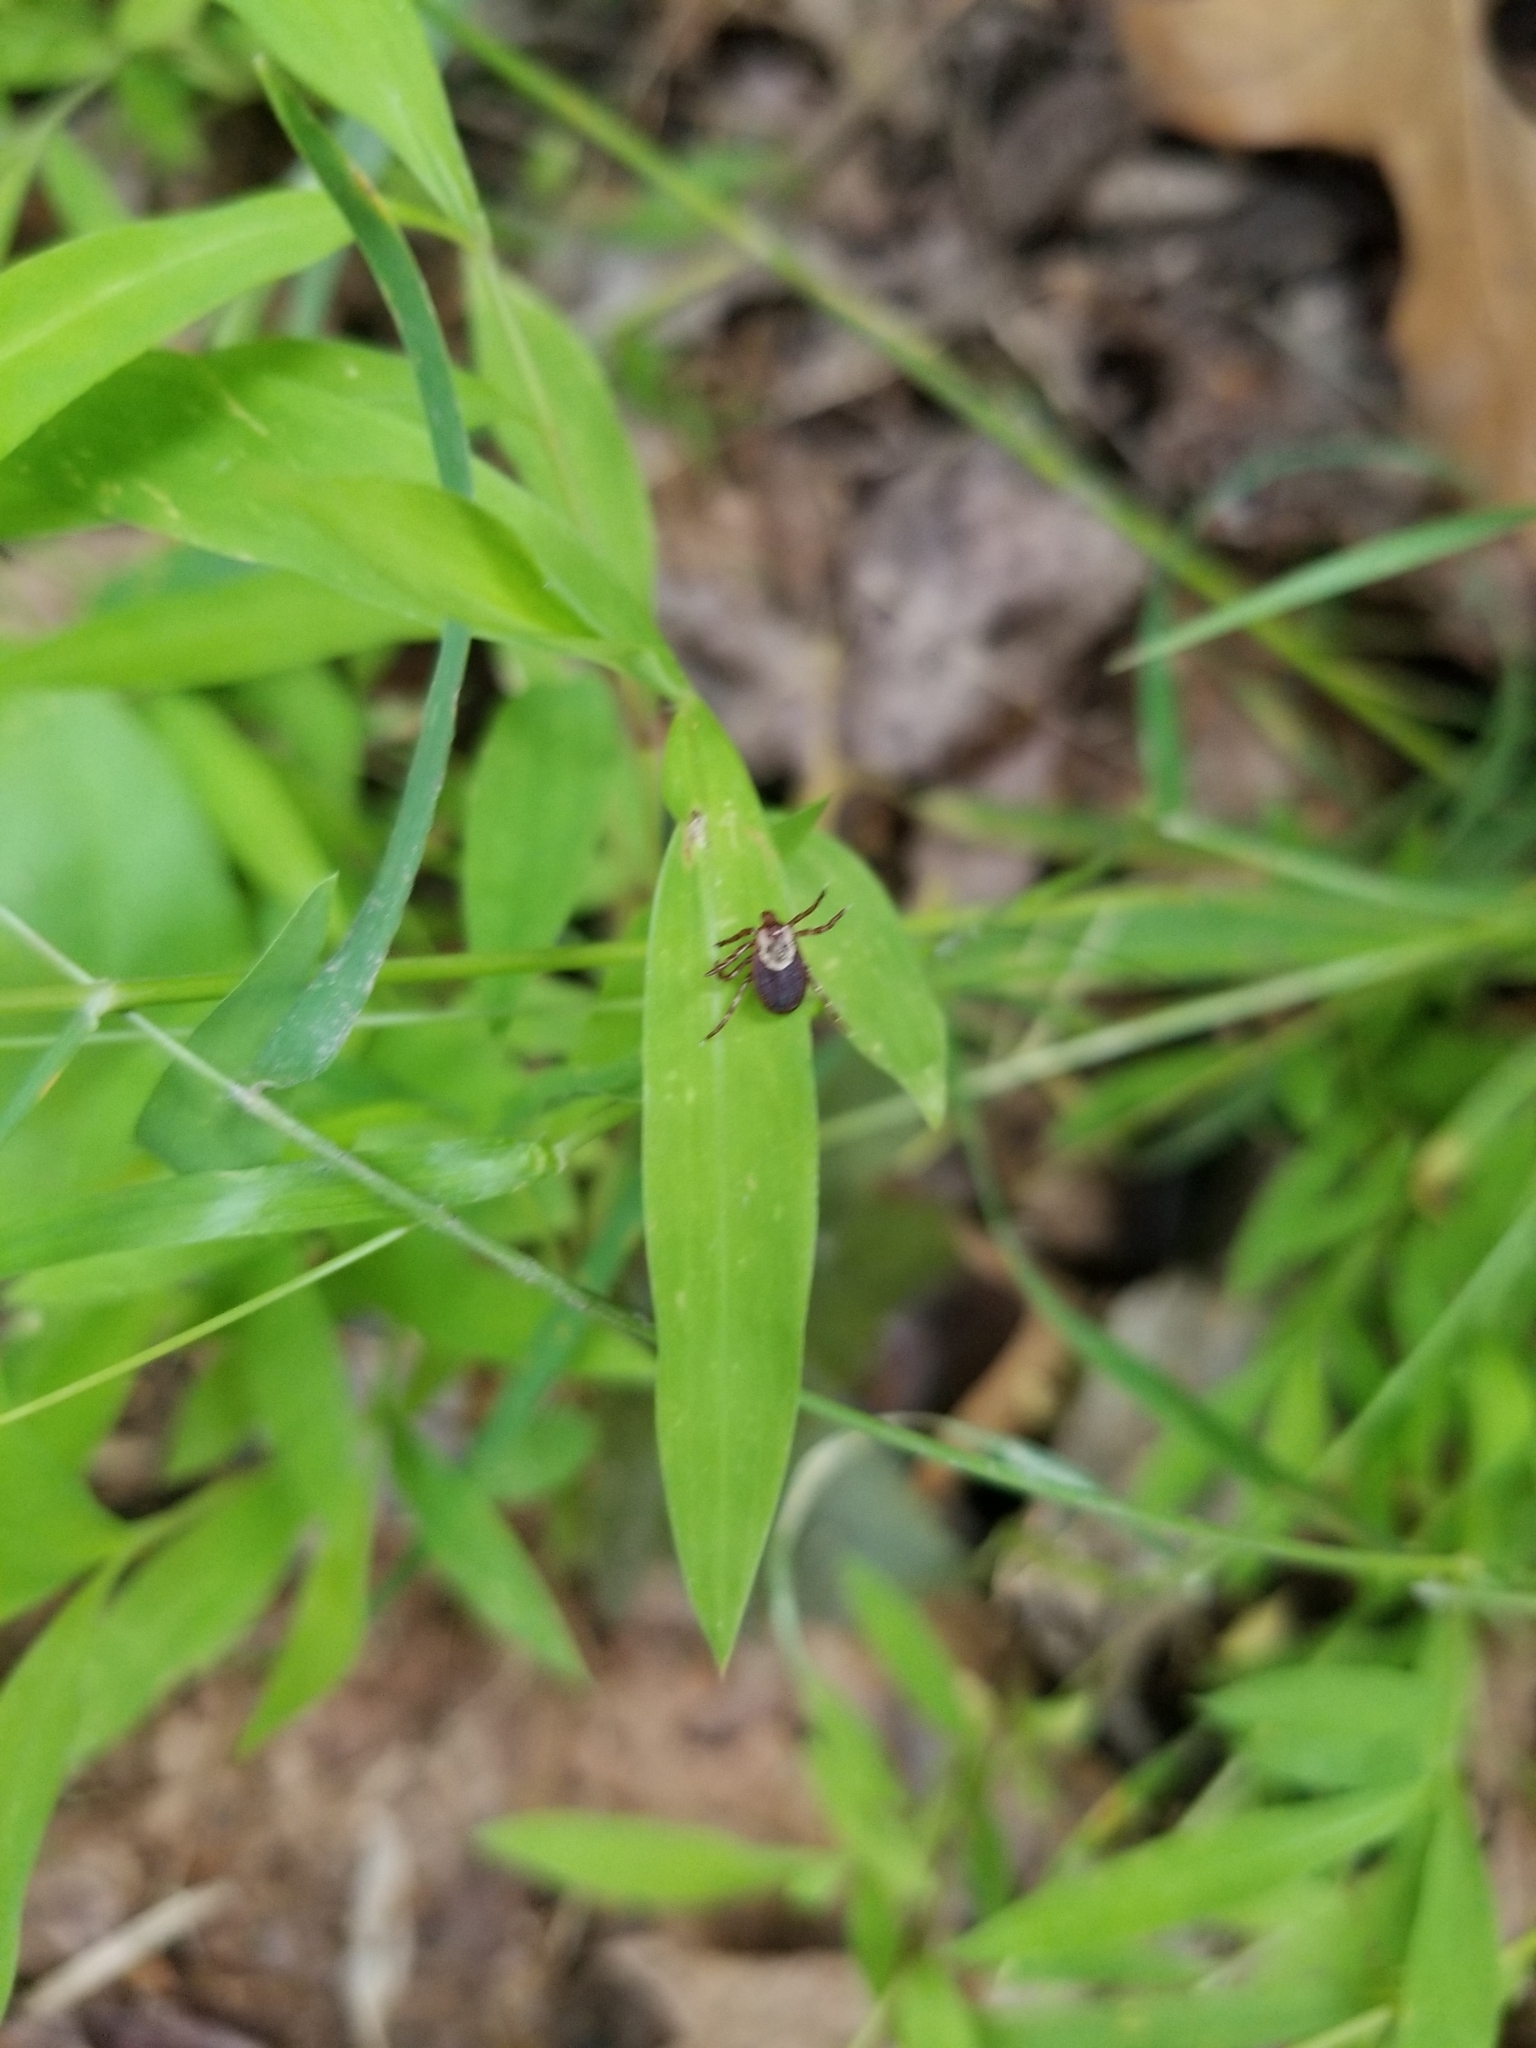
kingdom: Animalia
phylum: Arthropoda
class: Arachnida
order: Ixodida
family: Ixodidae
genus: Dermacentor
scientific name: Dermacentor variabilis
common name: American dog tick
